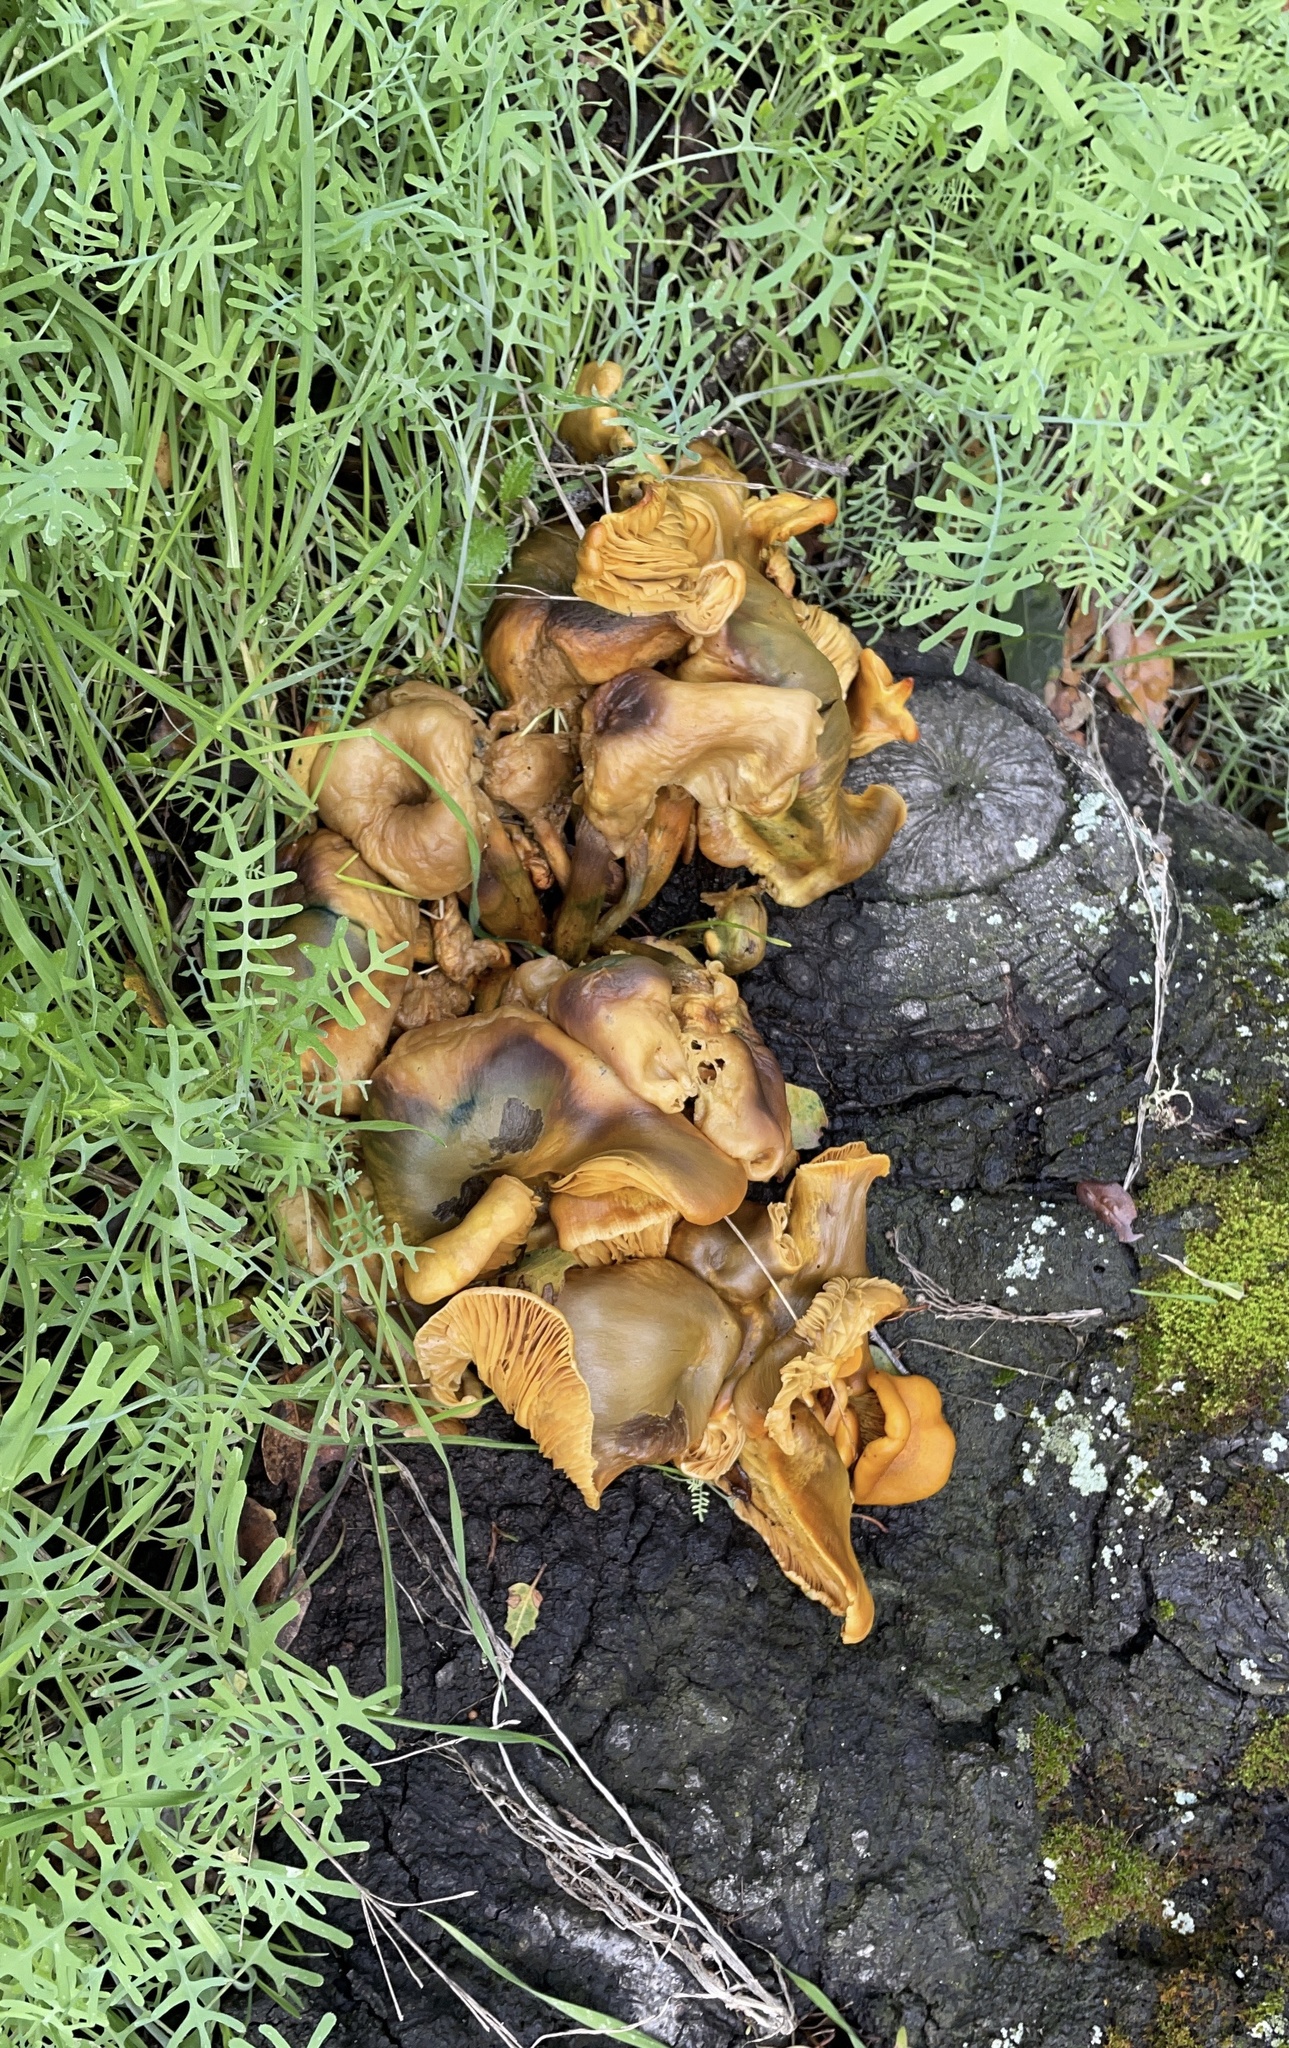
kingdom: Fungi
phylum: Basidiomycota
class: Agaricomycetes
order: Agaricales
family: Omphalotaceae
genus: Omphalotus
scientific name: Omphalotus olivascens
